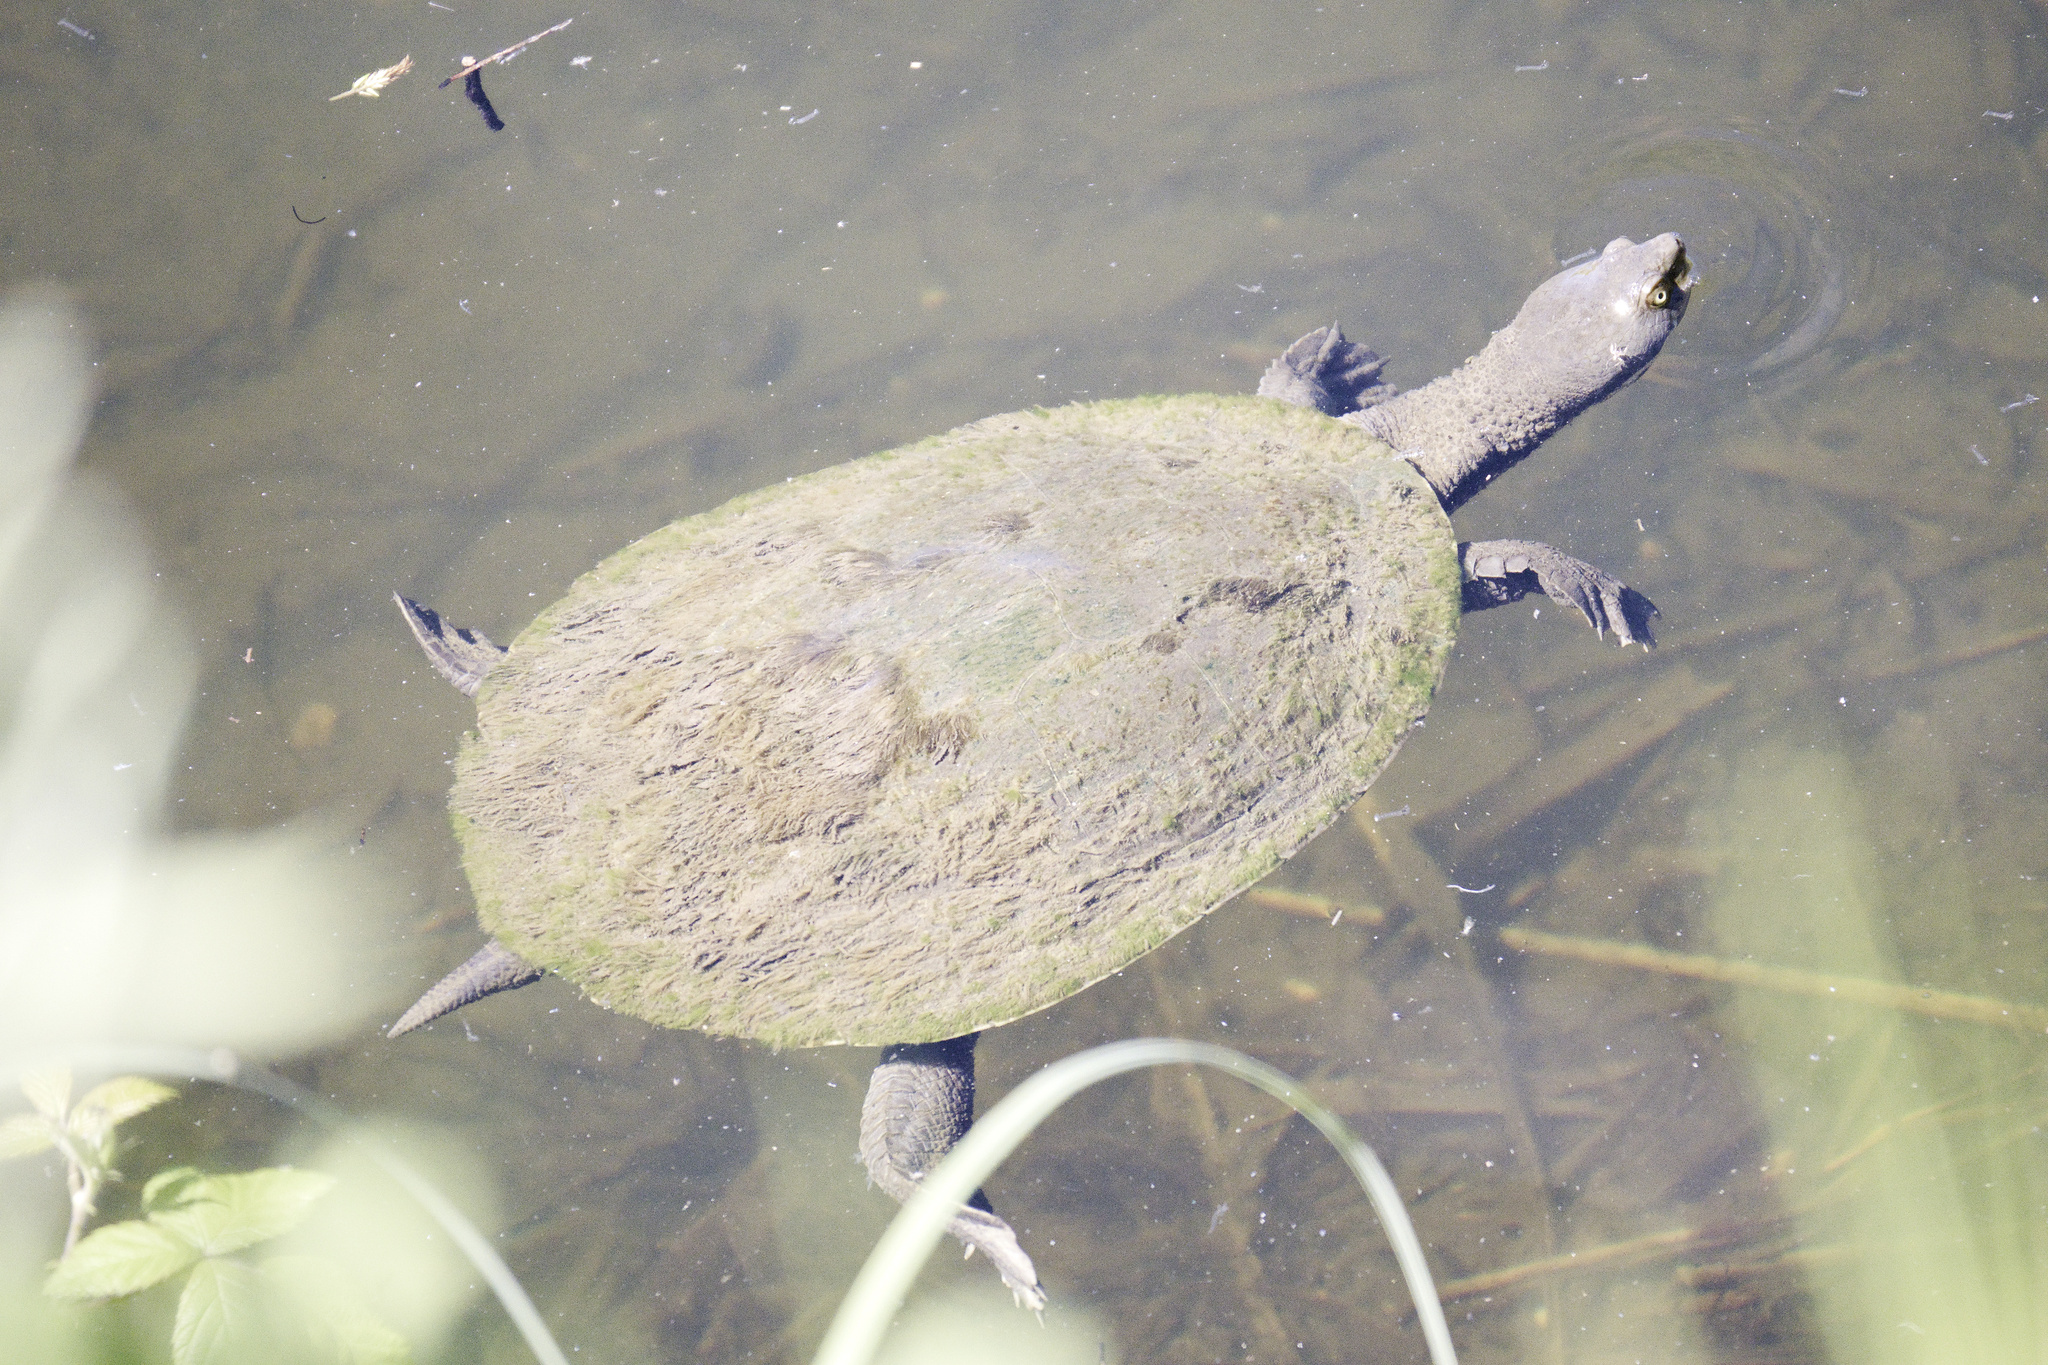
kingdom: Animalia
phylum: Chordata
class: Testudines
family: Chelidae
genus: Emydura
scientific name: Emydura macquarii
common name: Murray river turtle
